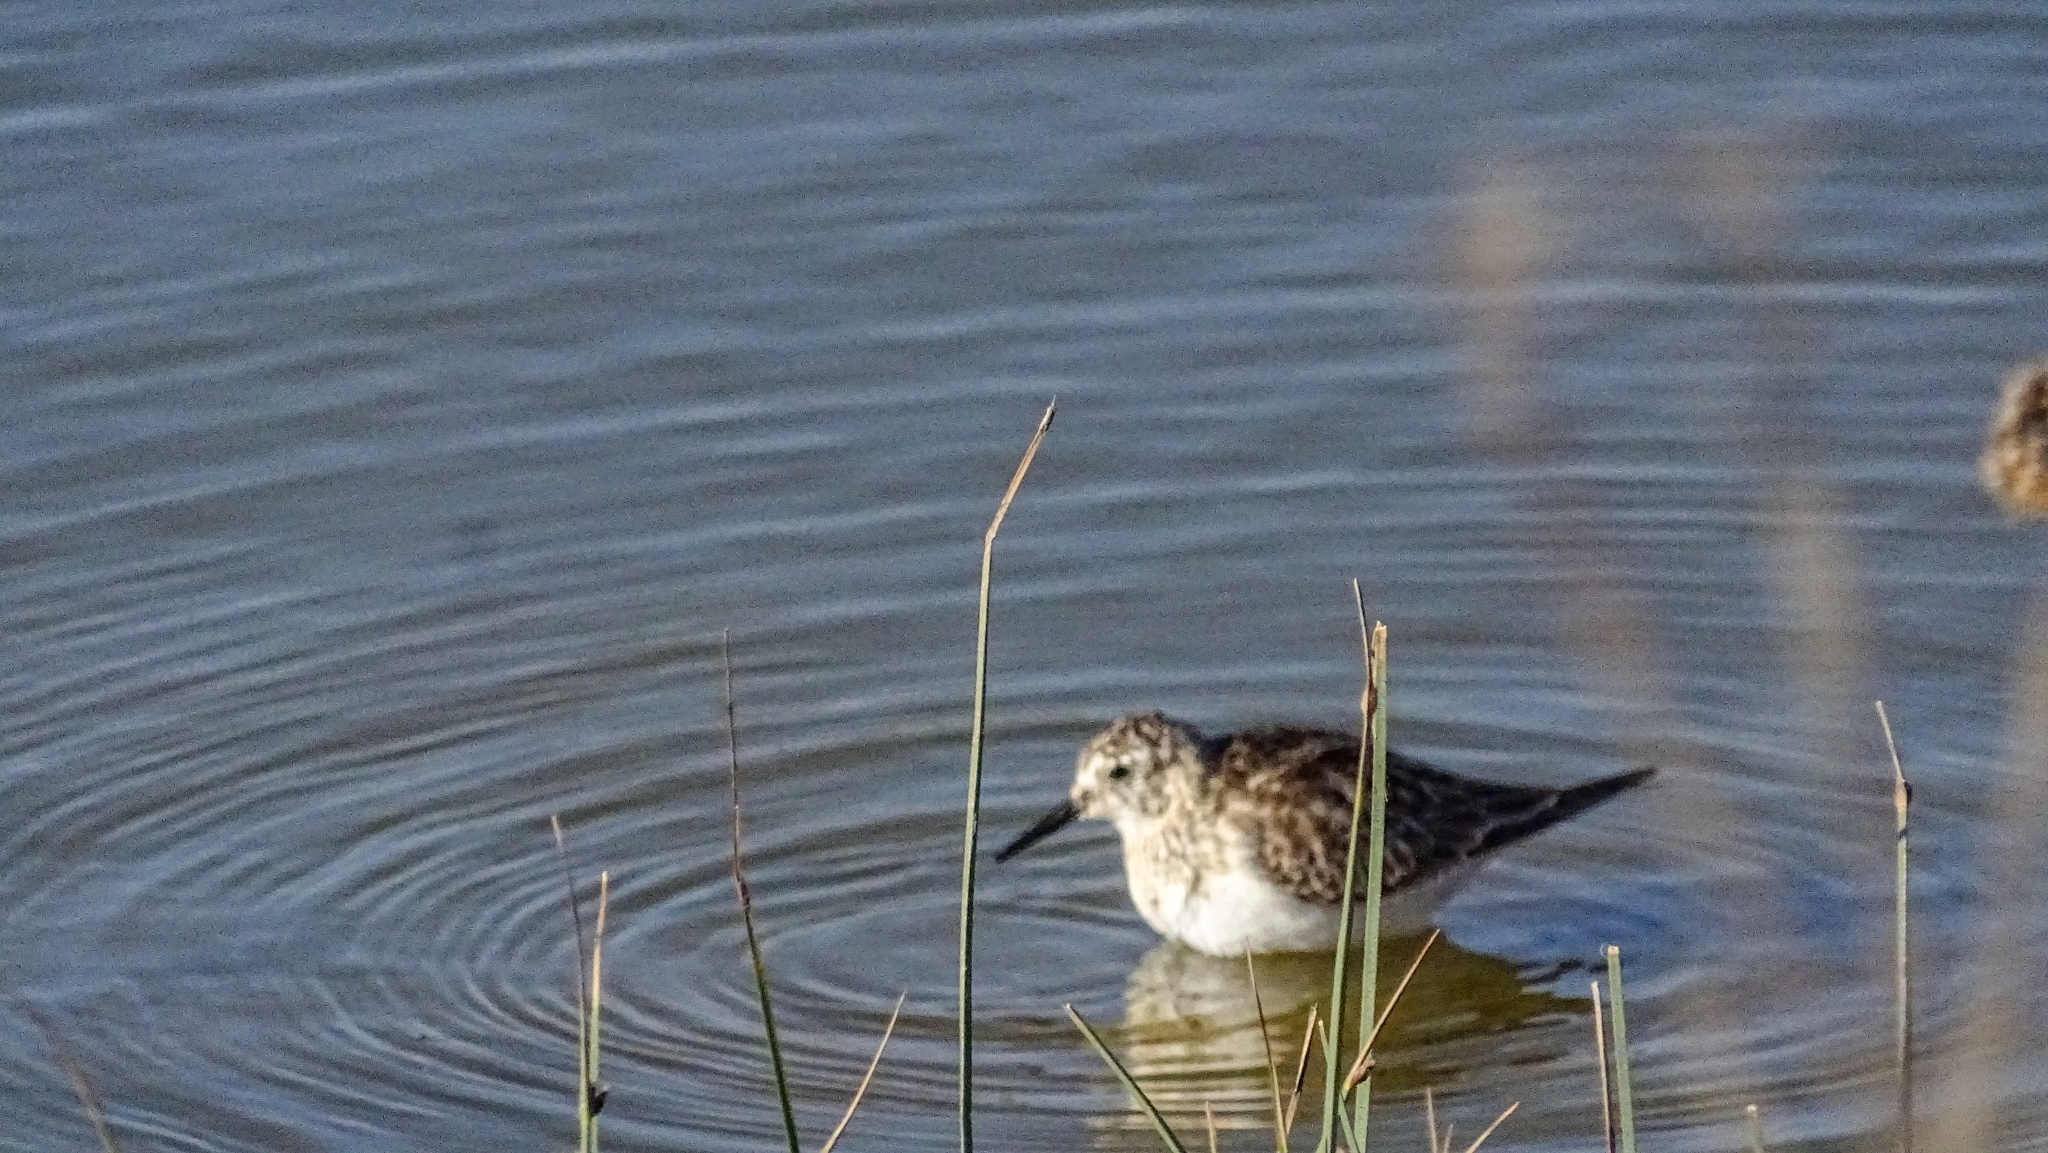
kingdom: Animalia
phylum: Chordata
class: Aves
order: Charadriiformes
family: Scolopacidae
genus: Calidris
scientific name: Calidris bairdii
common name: Baird's sandpiper
